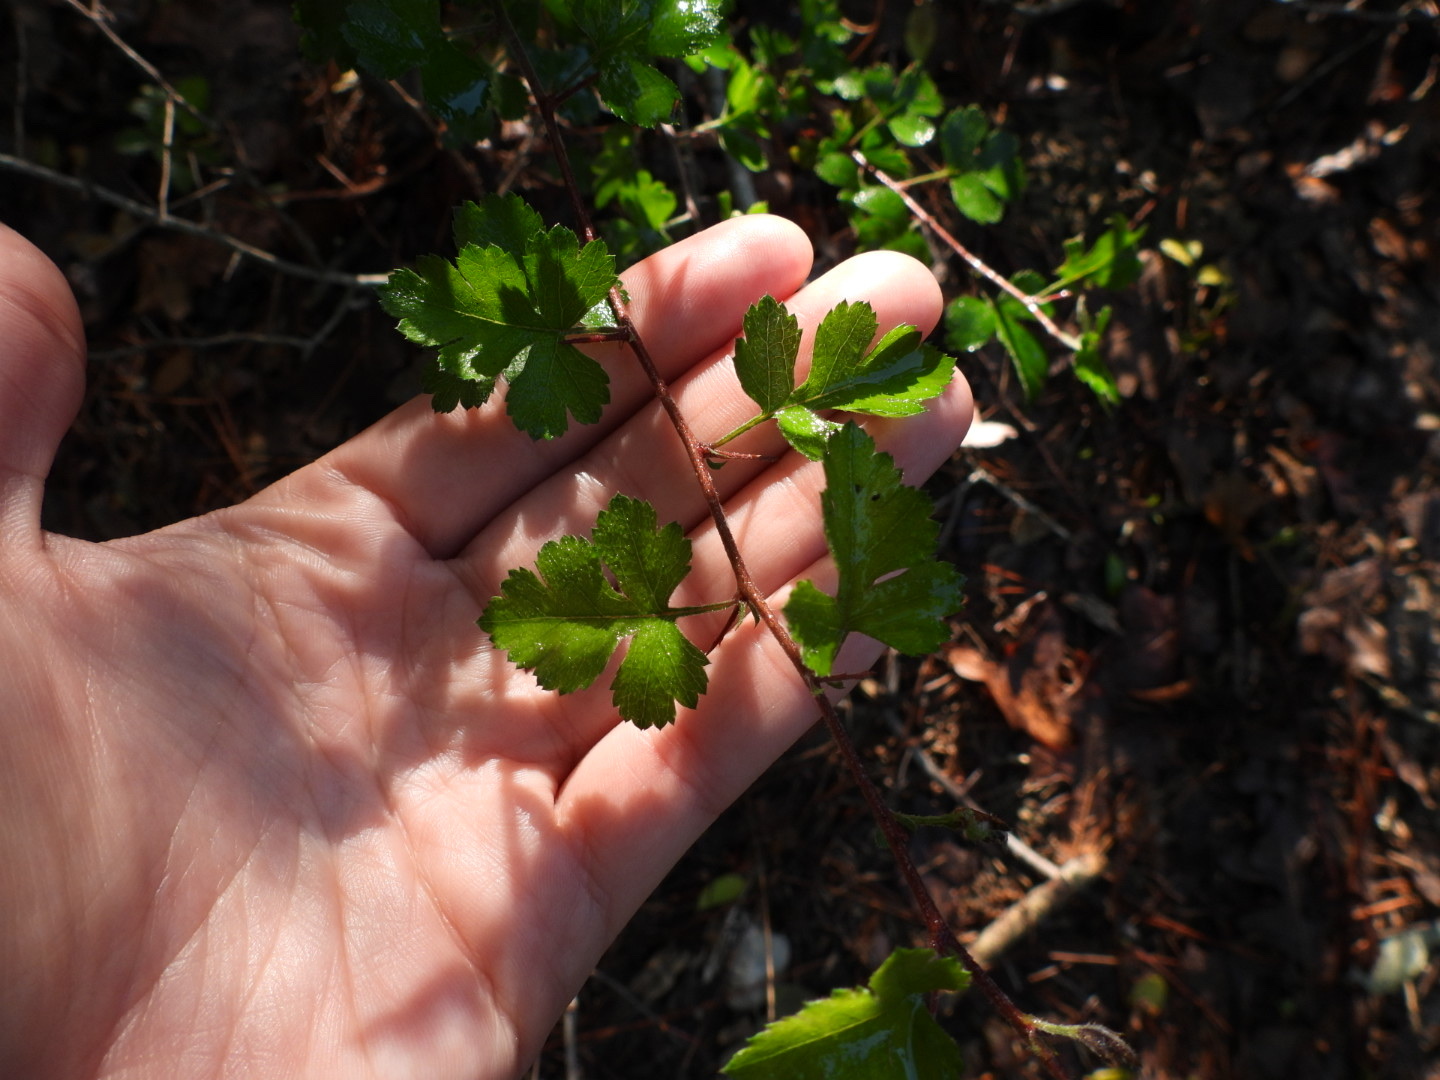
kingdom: Plantae
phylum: Tracheophyta
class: Magnoliopsida
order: Rosales
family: Rosaceae
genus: Crataegus
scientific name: Crataegus marshallii
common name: Parsley-hawthorn
